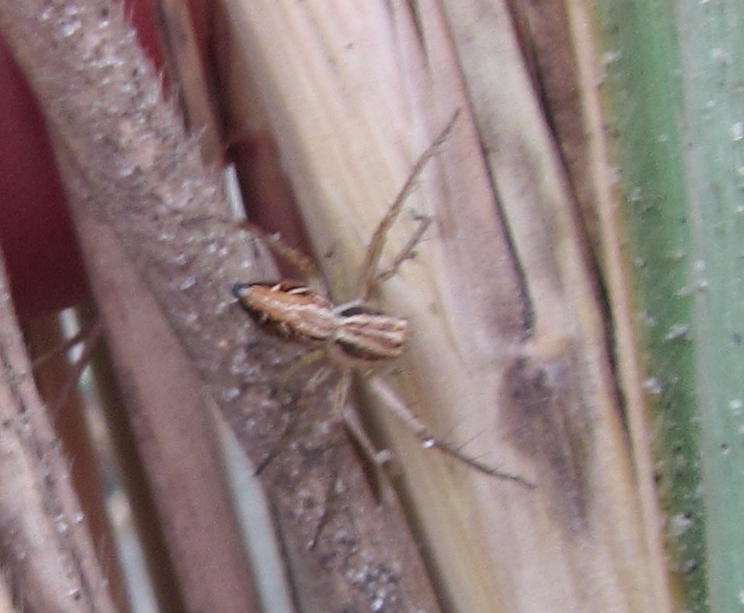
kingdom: Animalia
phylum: Arthropoda
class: Arachnida
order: Araneae
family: Oxyopidae
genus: Oxyopes
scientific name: Oxyopes gracilipes
